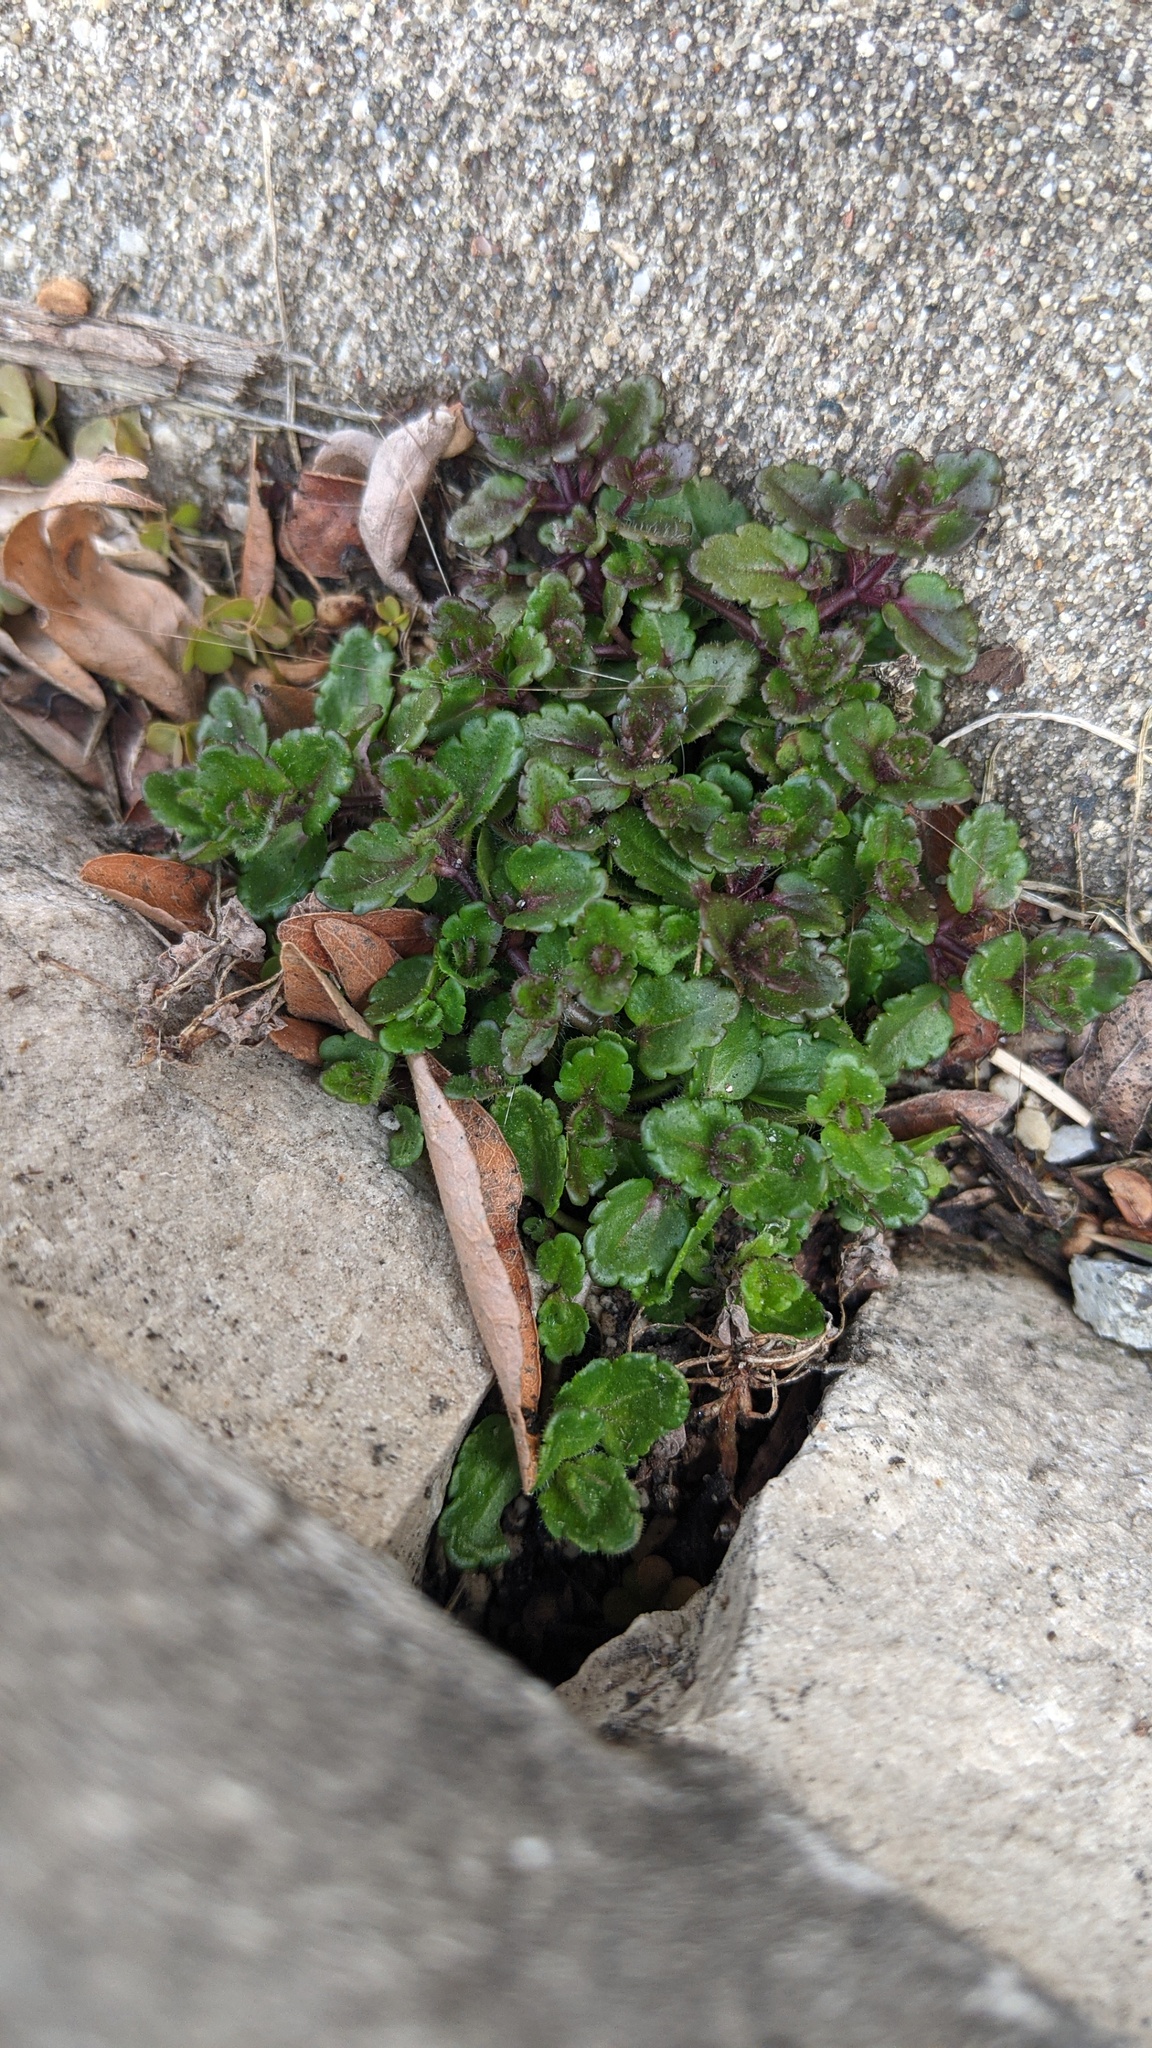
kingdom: Plantae
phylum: Tracheophyta
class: Magnoliopsida
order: Lamiales
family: Plantaginaceae
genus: Veronica
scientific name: Veronica arvensis
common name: Corn speedwell
